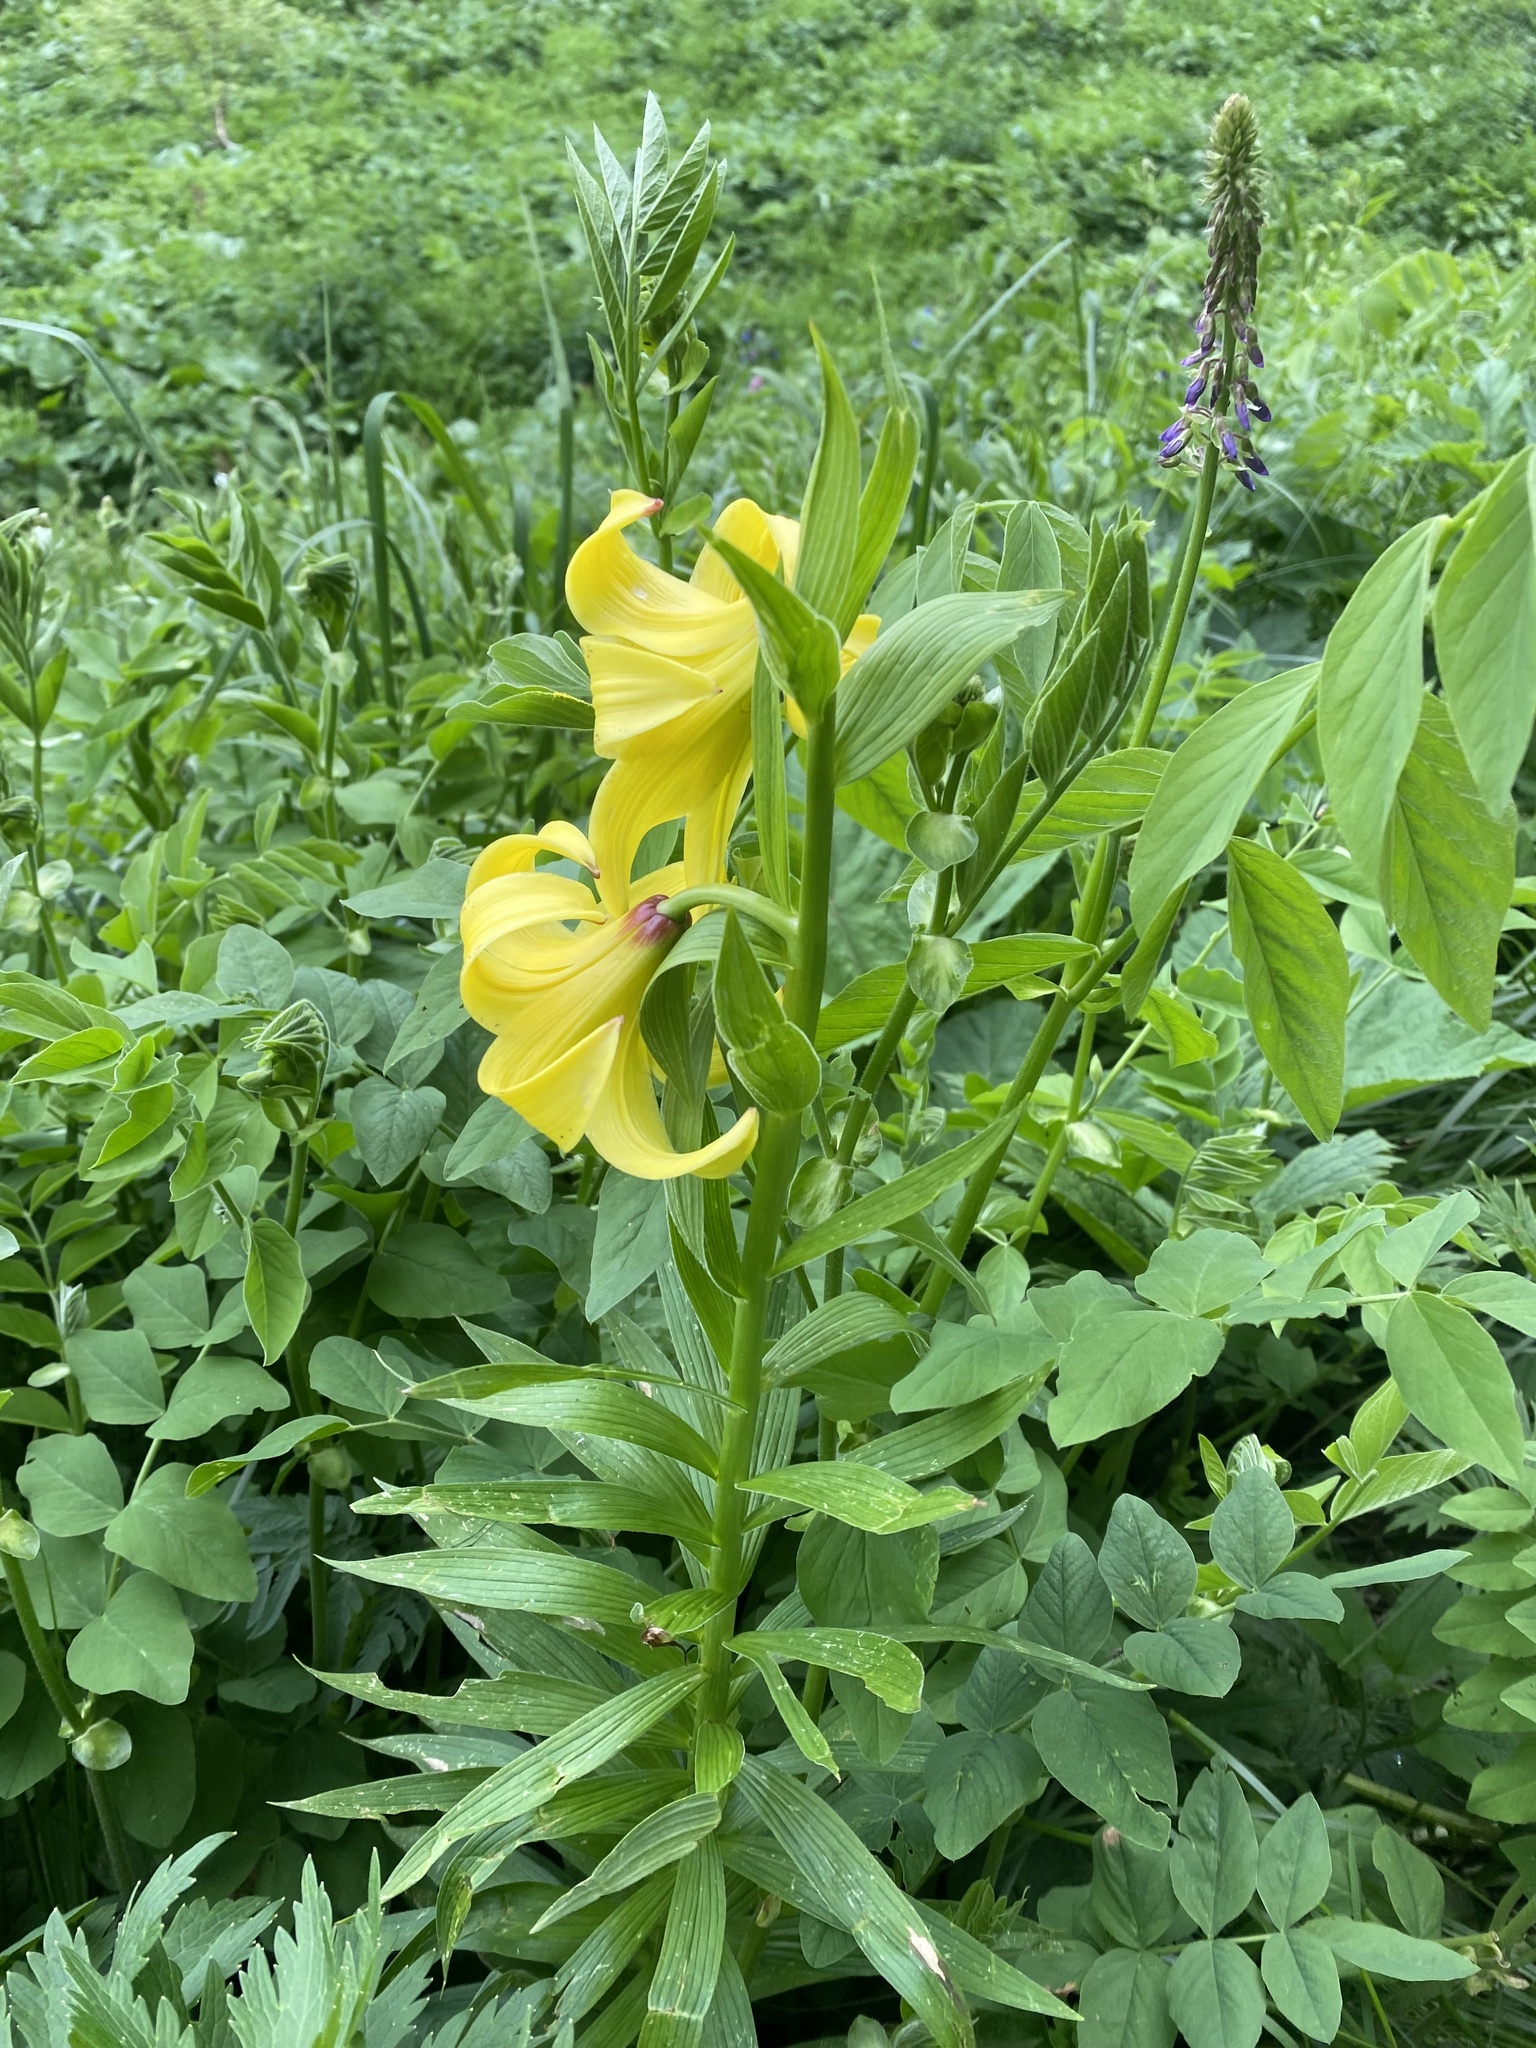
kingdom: Plantae
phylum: Tracheophyta
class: Liliopsida
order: Liliales
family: Liliaceae
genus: Lilium
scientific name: Lilium monadelphum
